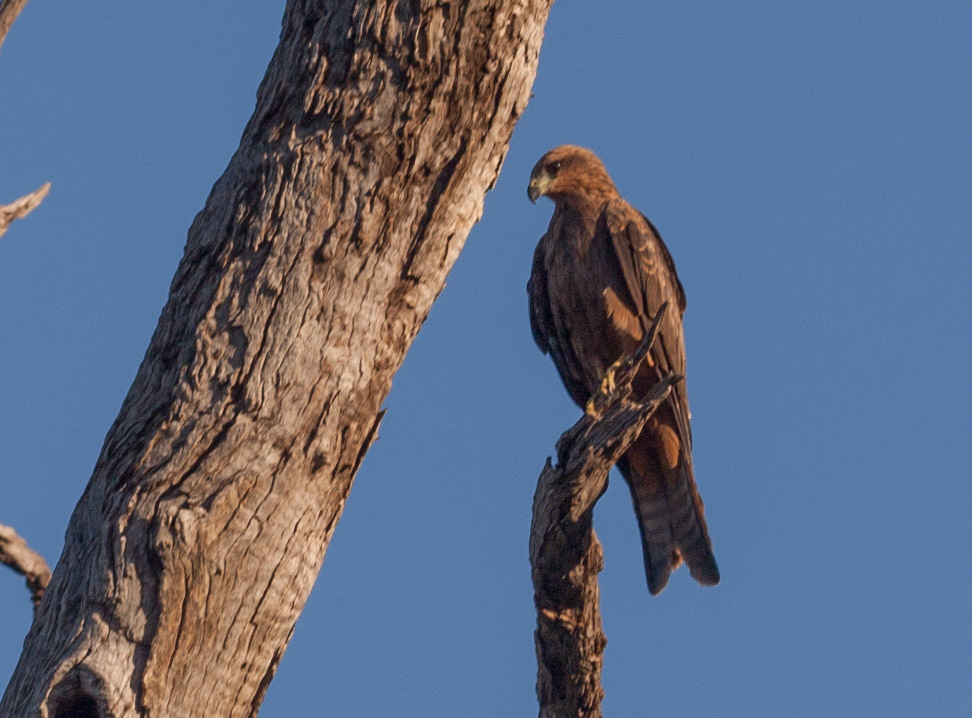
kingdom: Animalia
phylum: Chordata
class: Aves
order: Accipitriformes
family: Accipitridae
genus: Milvus
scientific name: Milvus migrans
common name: Black kite
